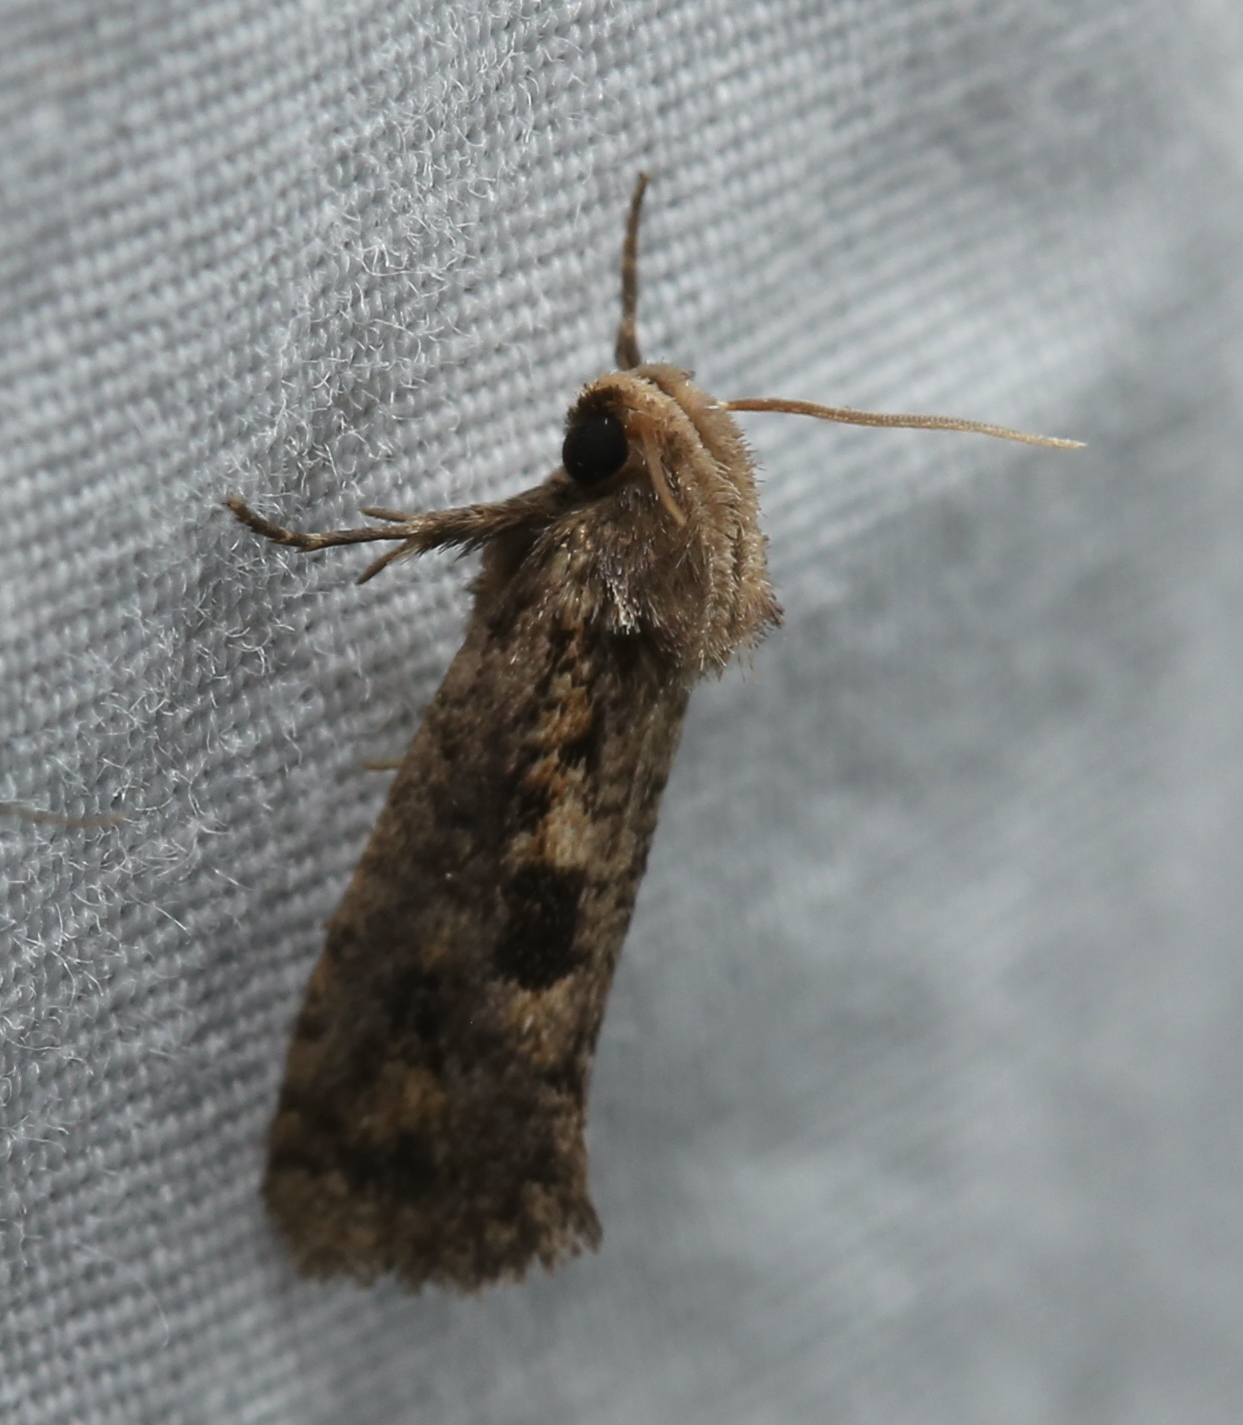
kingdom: Animalia
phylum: Arthropoda
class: Insecta
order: Lepidoptera
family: Tineidae
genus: Acrolophus
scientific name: Acrolophus popeanella
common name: Clemens' grass tubeworm moth
